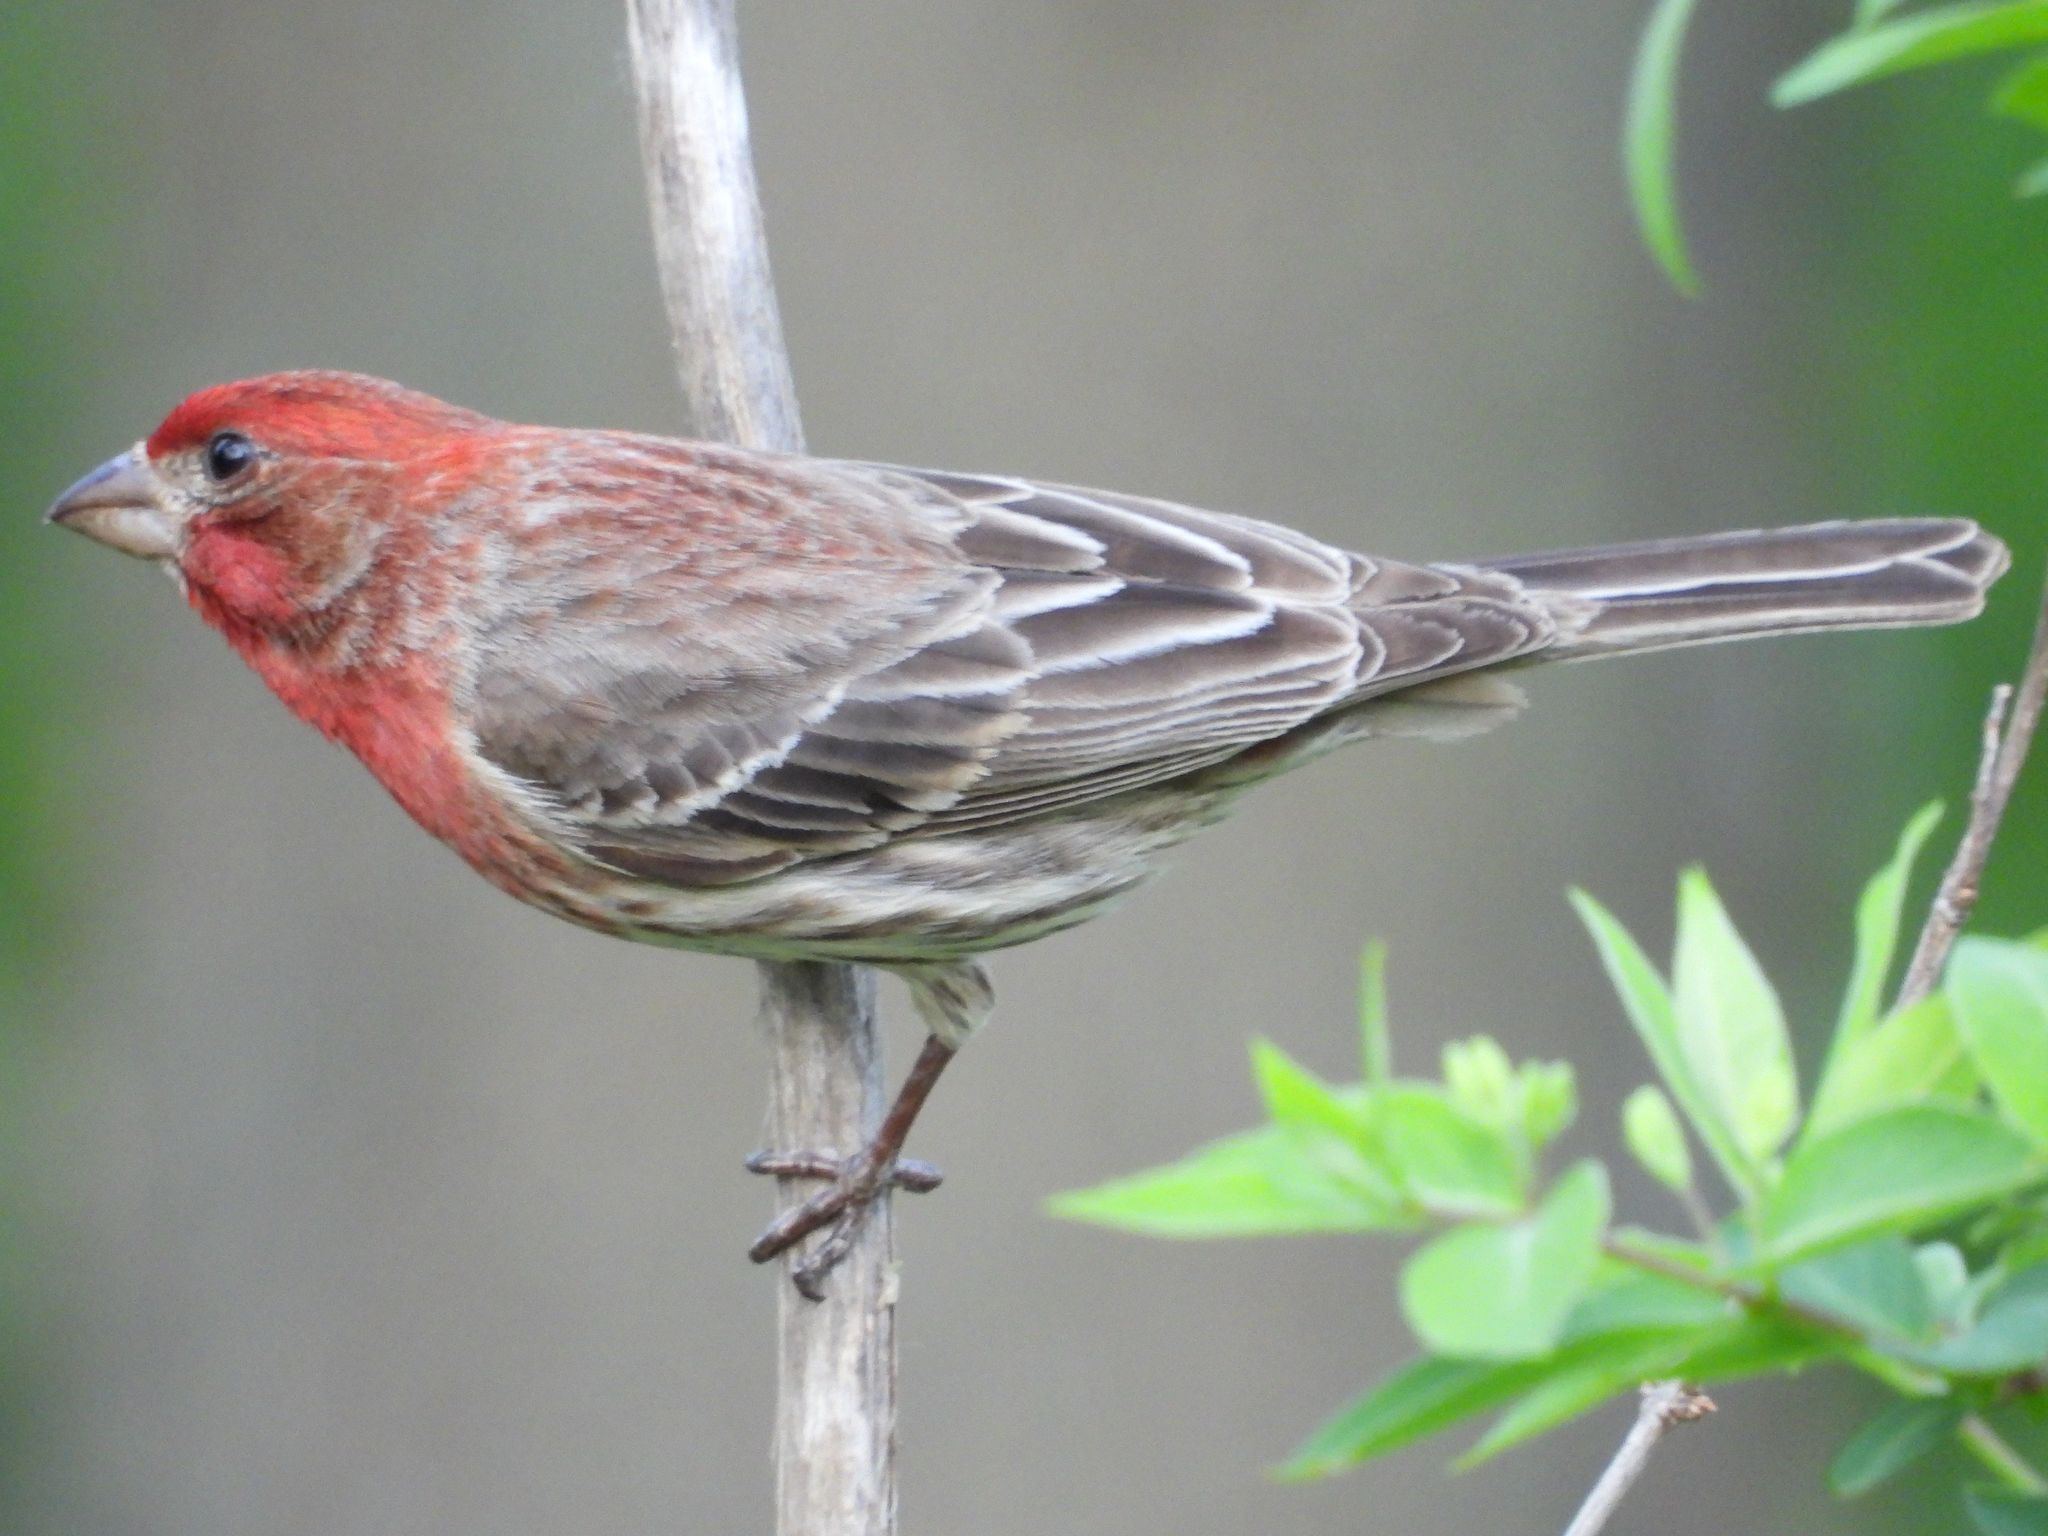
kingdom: Animalia
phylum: Chordata
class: Aves
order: Passeriformes
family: Fringillidae
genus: Haemorhous
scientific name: Haemorhous mexicanus
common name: House finch
